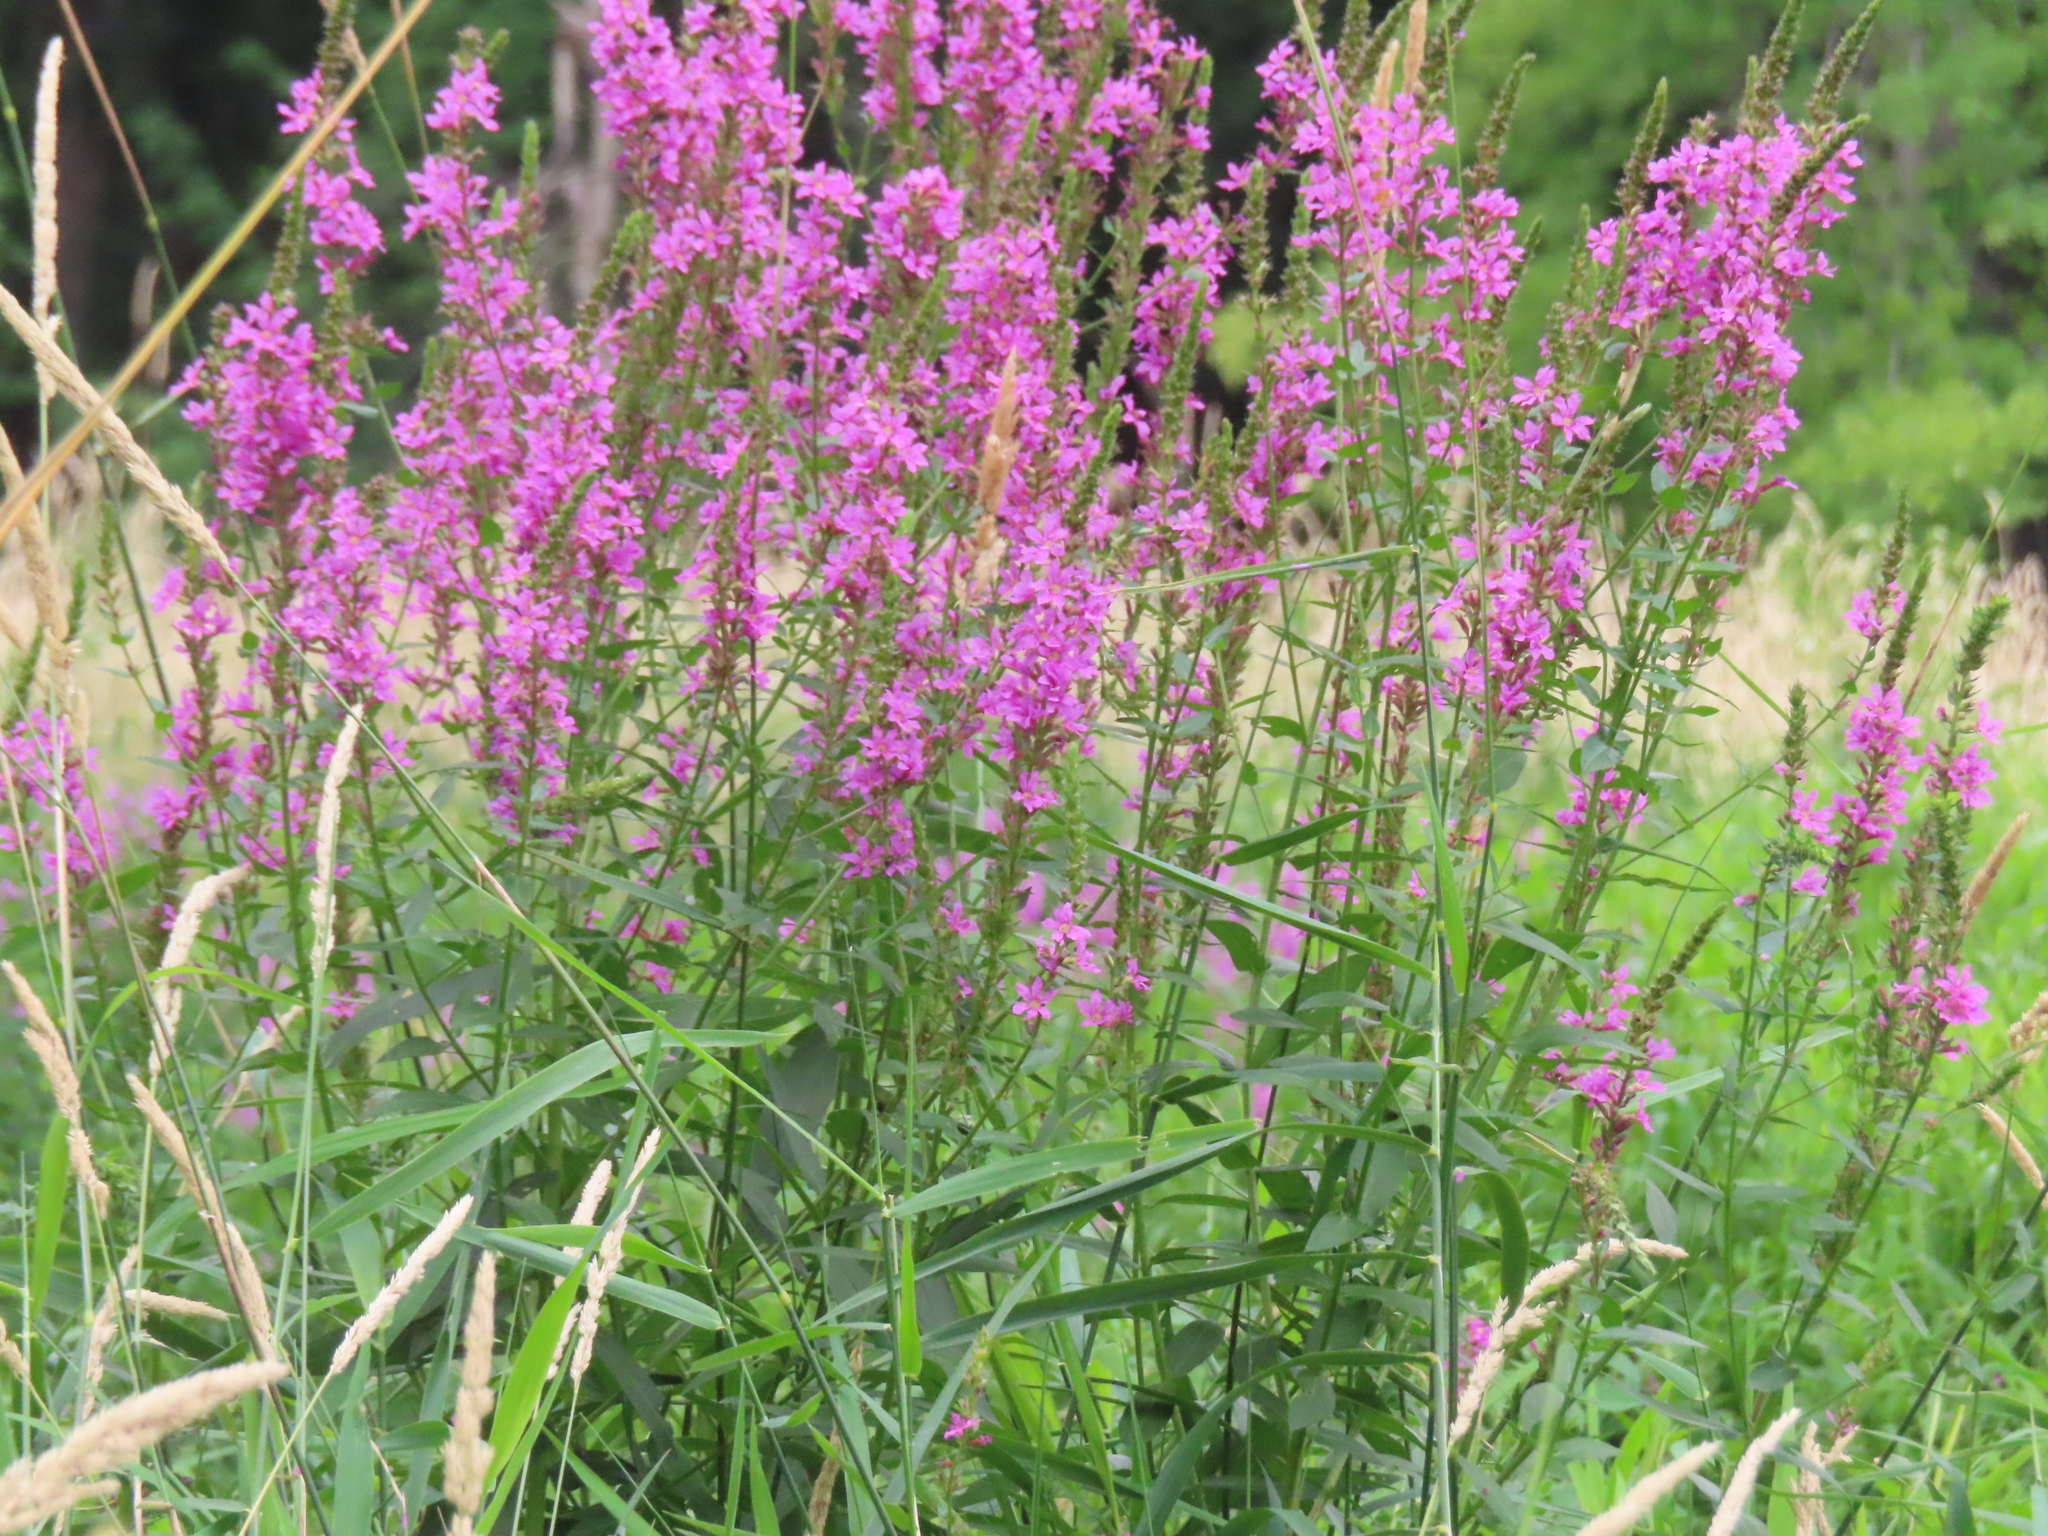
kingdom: Plantae
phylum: Tracheophyta
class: Magnoliopsida
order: Myrtales
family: Lythraceae
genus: Lythrum
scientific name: Lythrum salicaria
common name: Purple loosestrife
